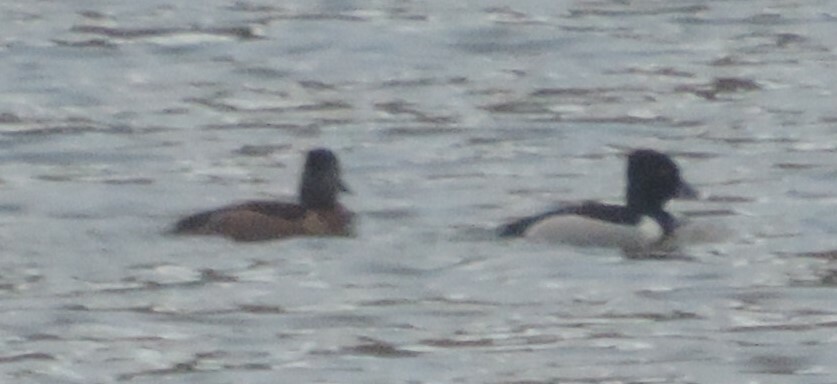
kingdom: Animalia
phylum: Chordata
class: Aves
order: Anseriformes
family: Anatidae
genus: Aythya
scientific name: Aythya collaris
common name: Ring-necked duck
